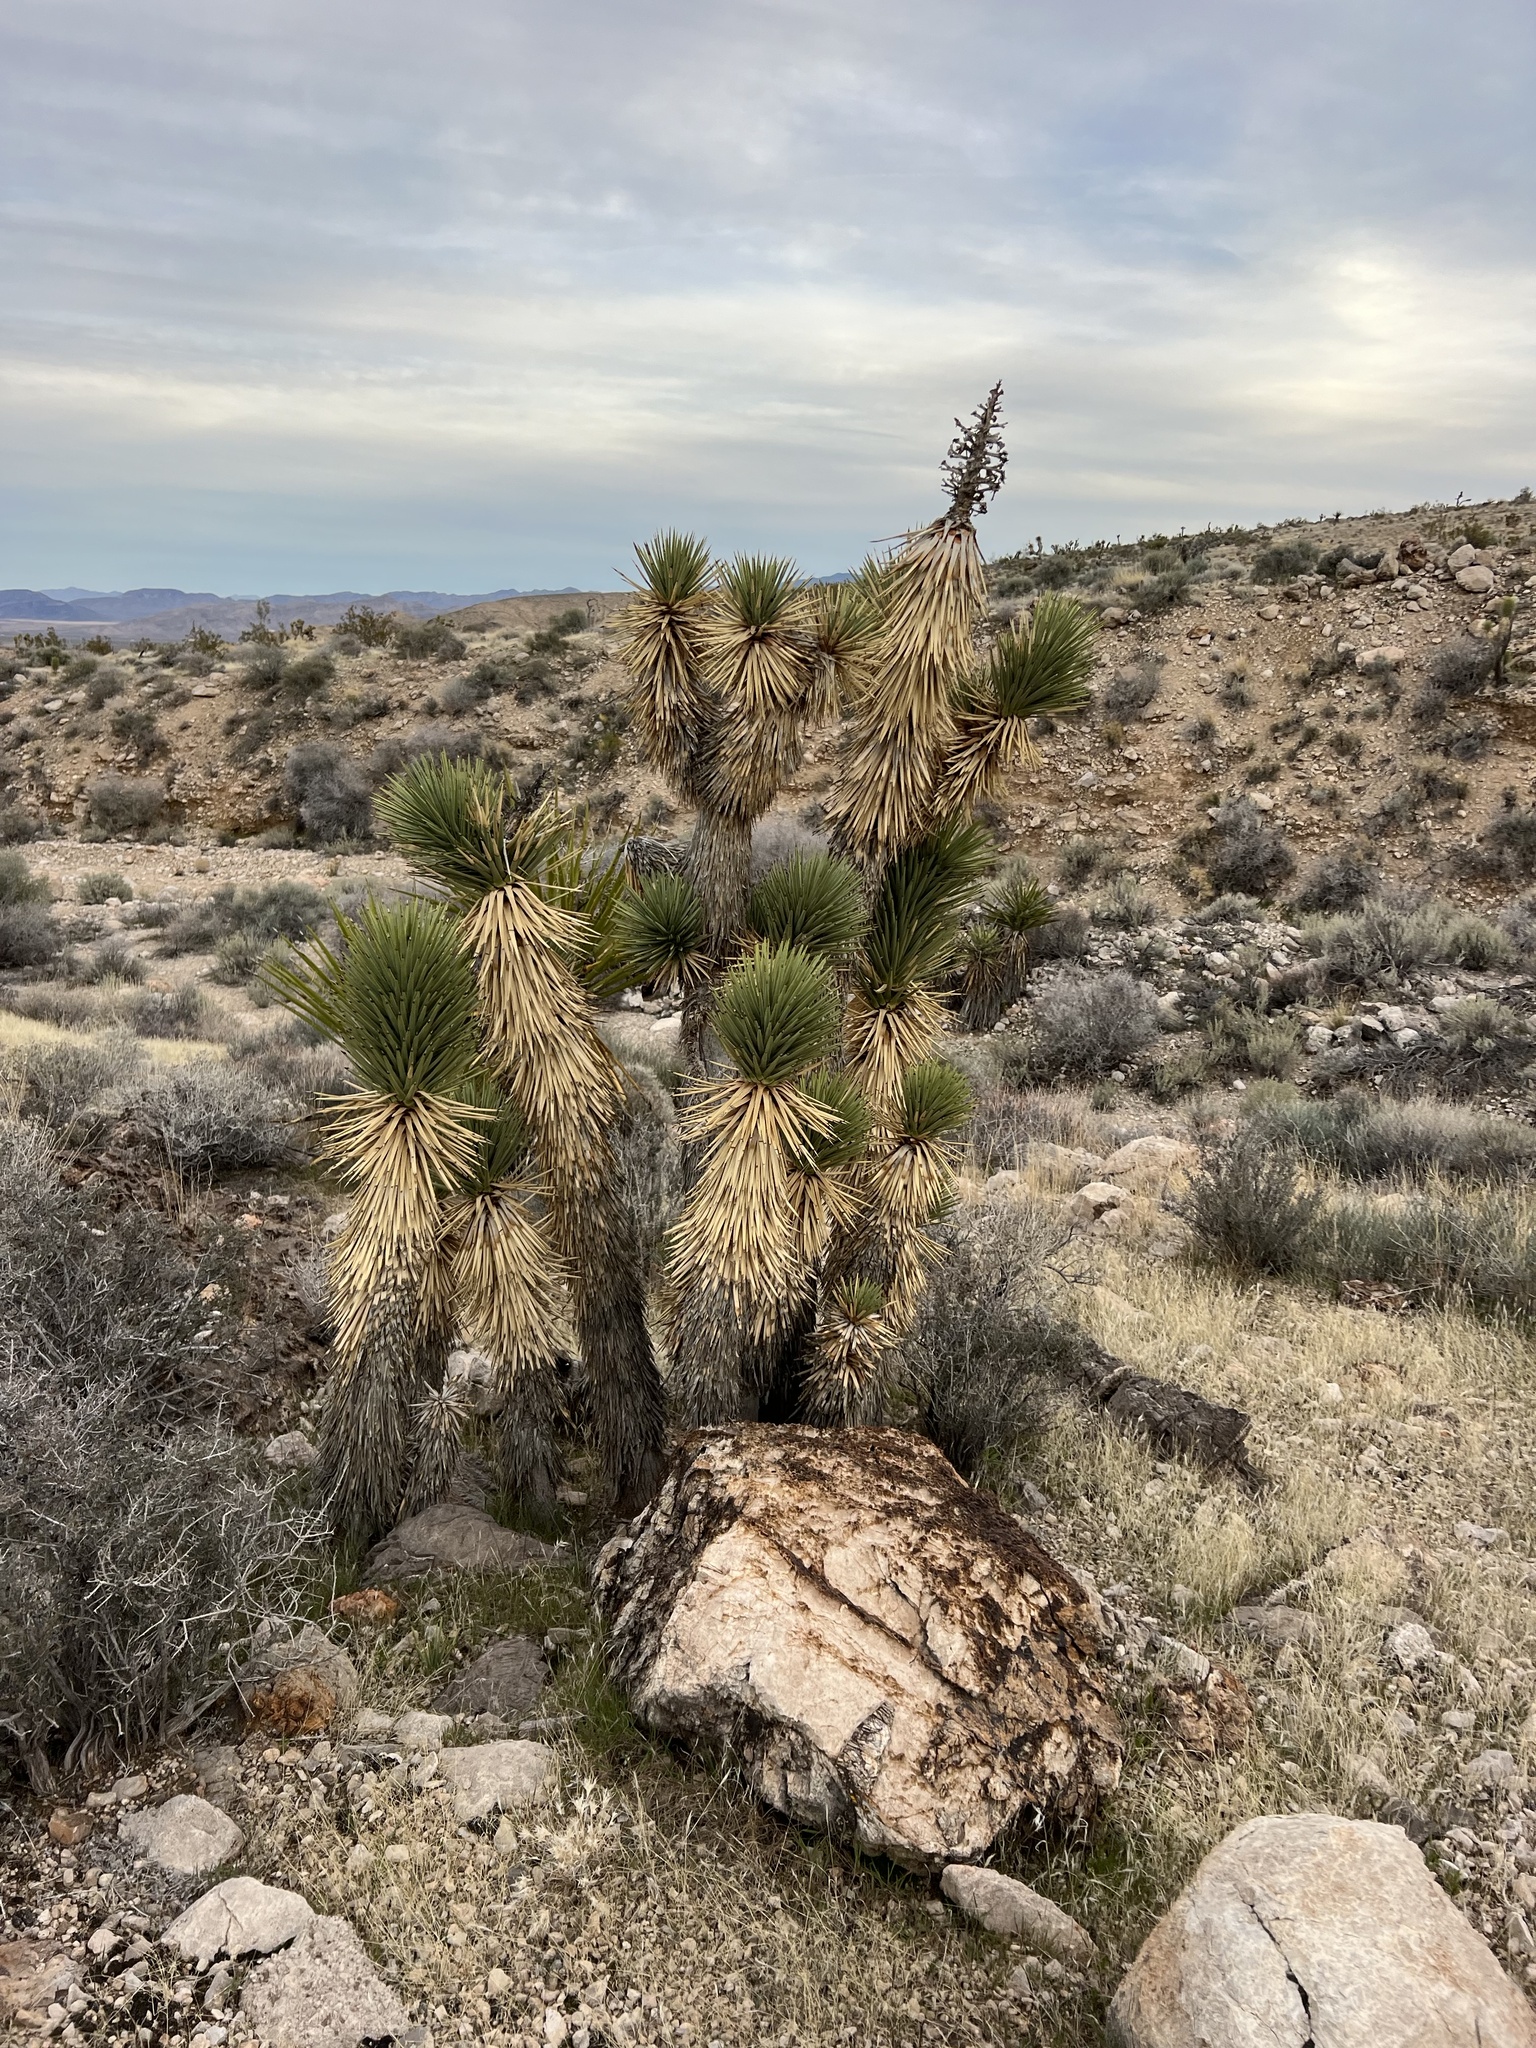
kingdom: Plantae
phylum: Tracheophyta
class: Liliopsida
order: Asparagales
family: Asparagaceae
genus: Yucca
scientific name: Yucca brevifolia
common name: Joshua tree
